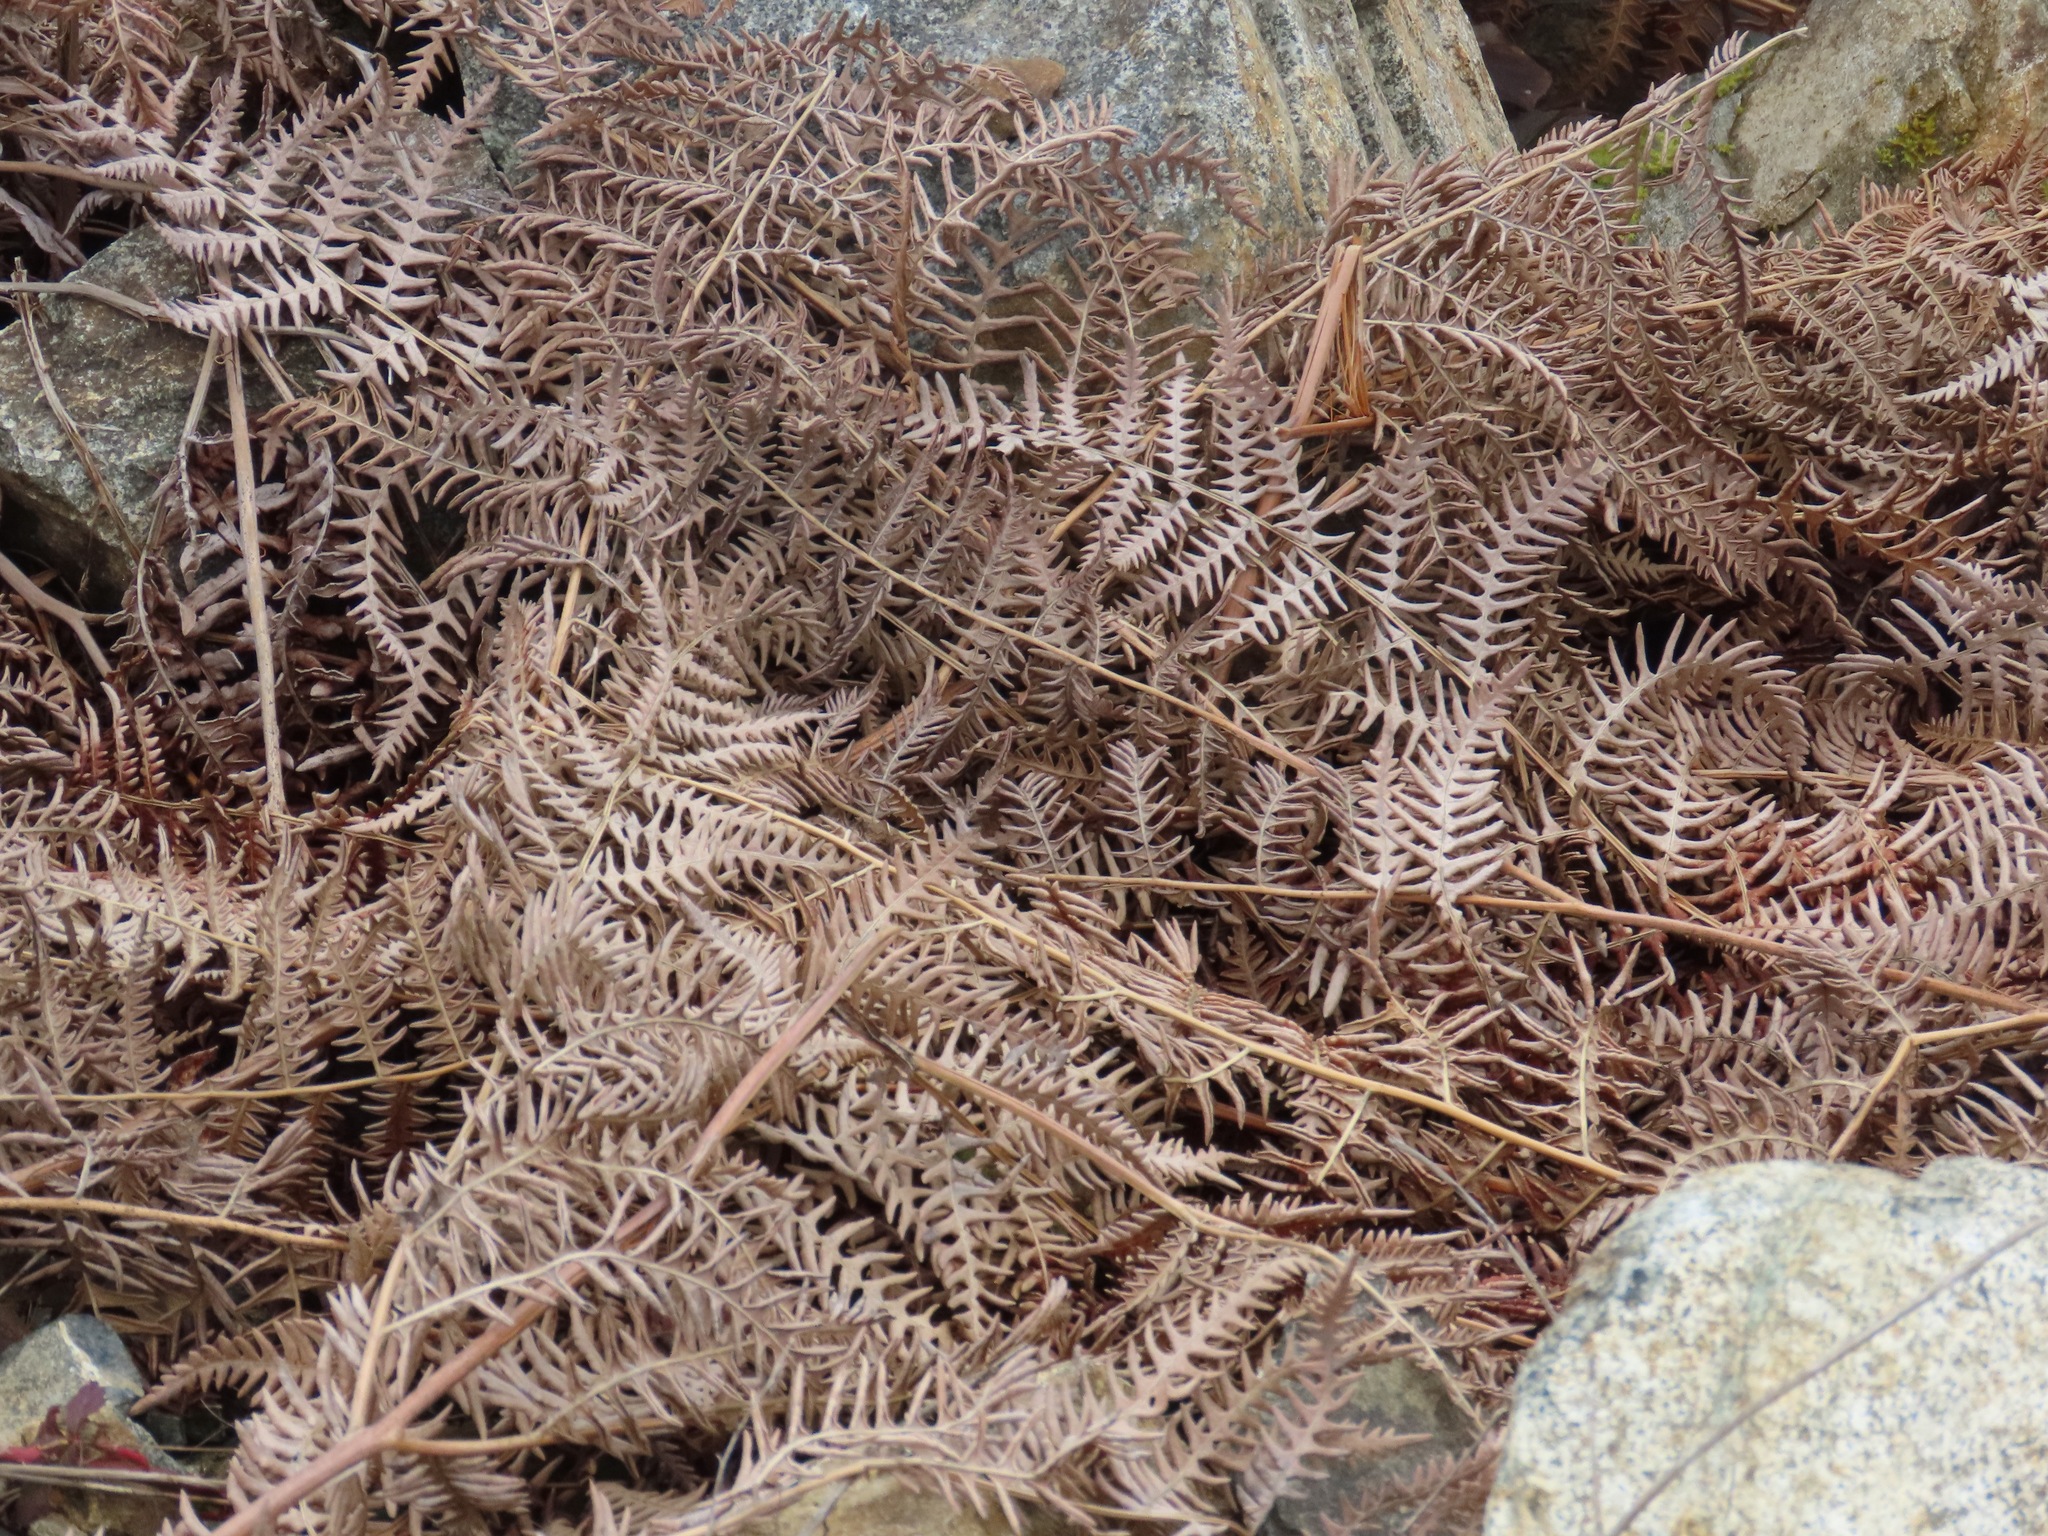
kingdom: Plantae
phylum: Tracheophyta
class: Polypodiopsida
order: Polypodiales
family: Dennstaedtiaceae
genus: Pteridium
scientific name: Pteridium aquilinum
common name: Bracken
